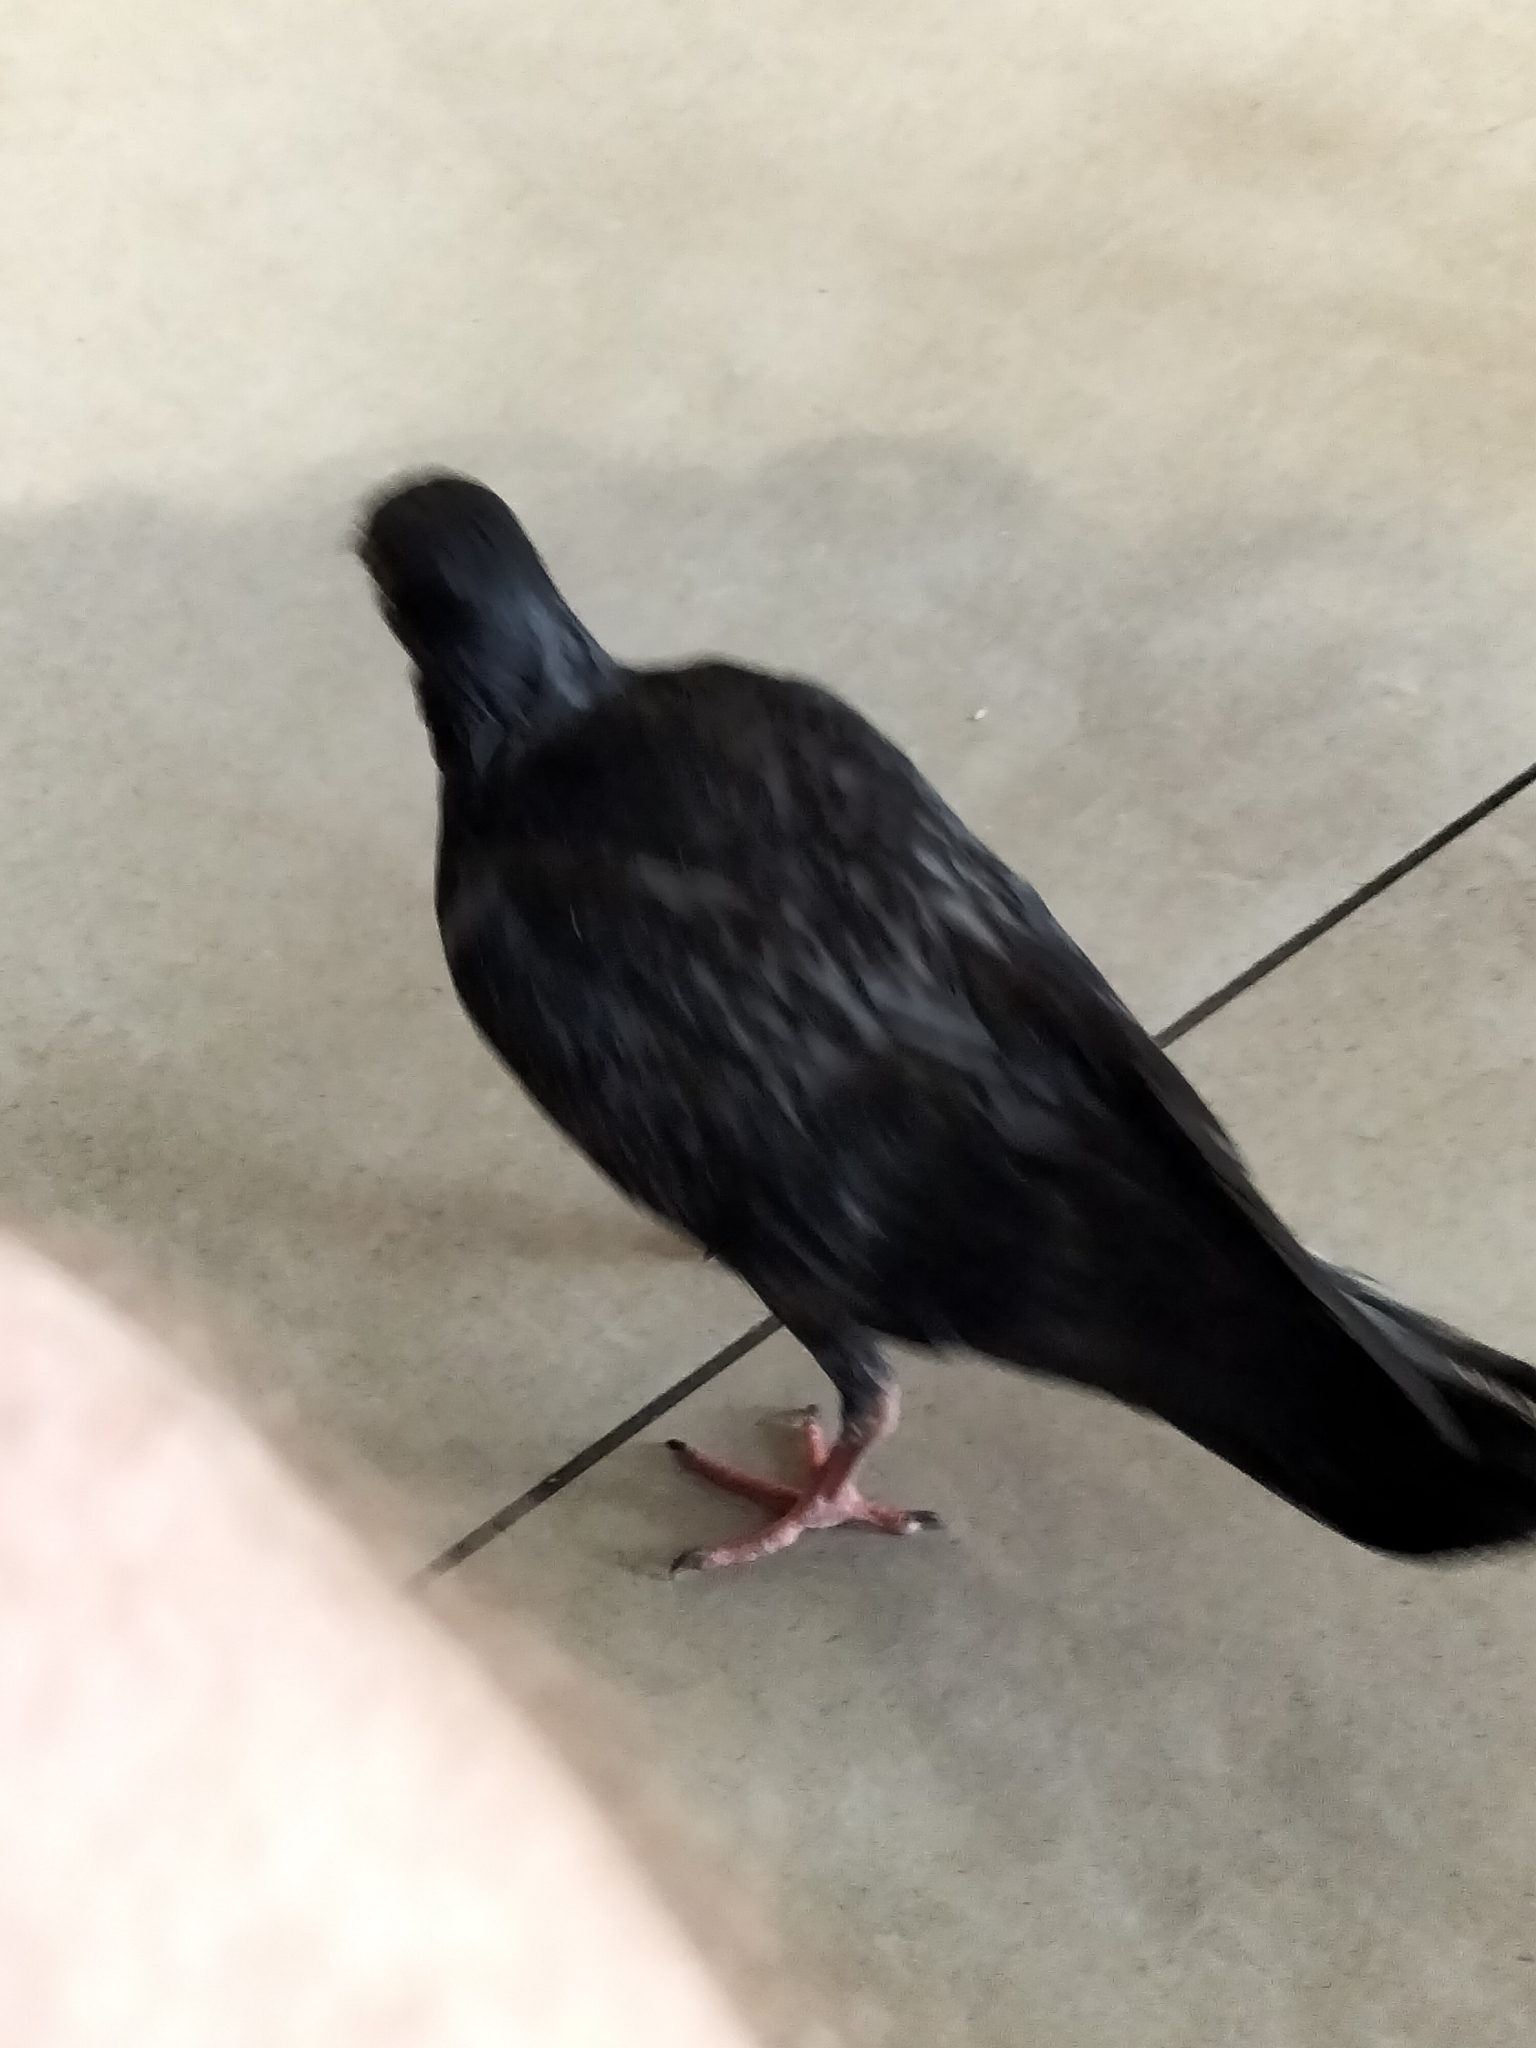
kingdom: Animalia
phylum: Chordata
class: Aves
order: Columbiformes
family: Columbidae
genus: Columba
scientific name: Columba livia
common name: Rock pigeon
